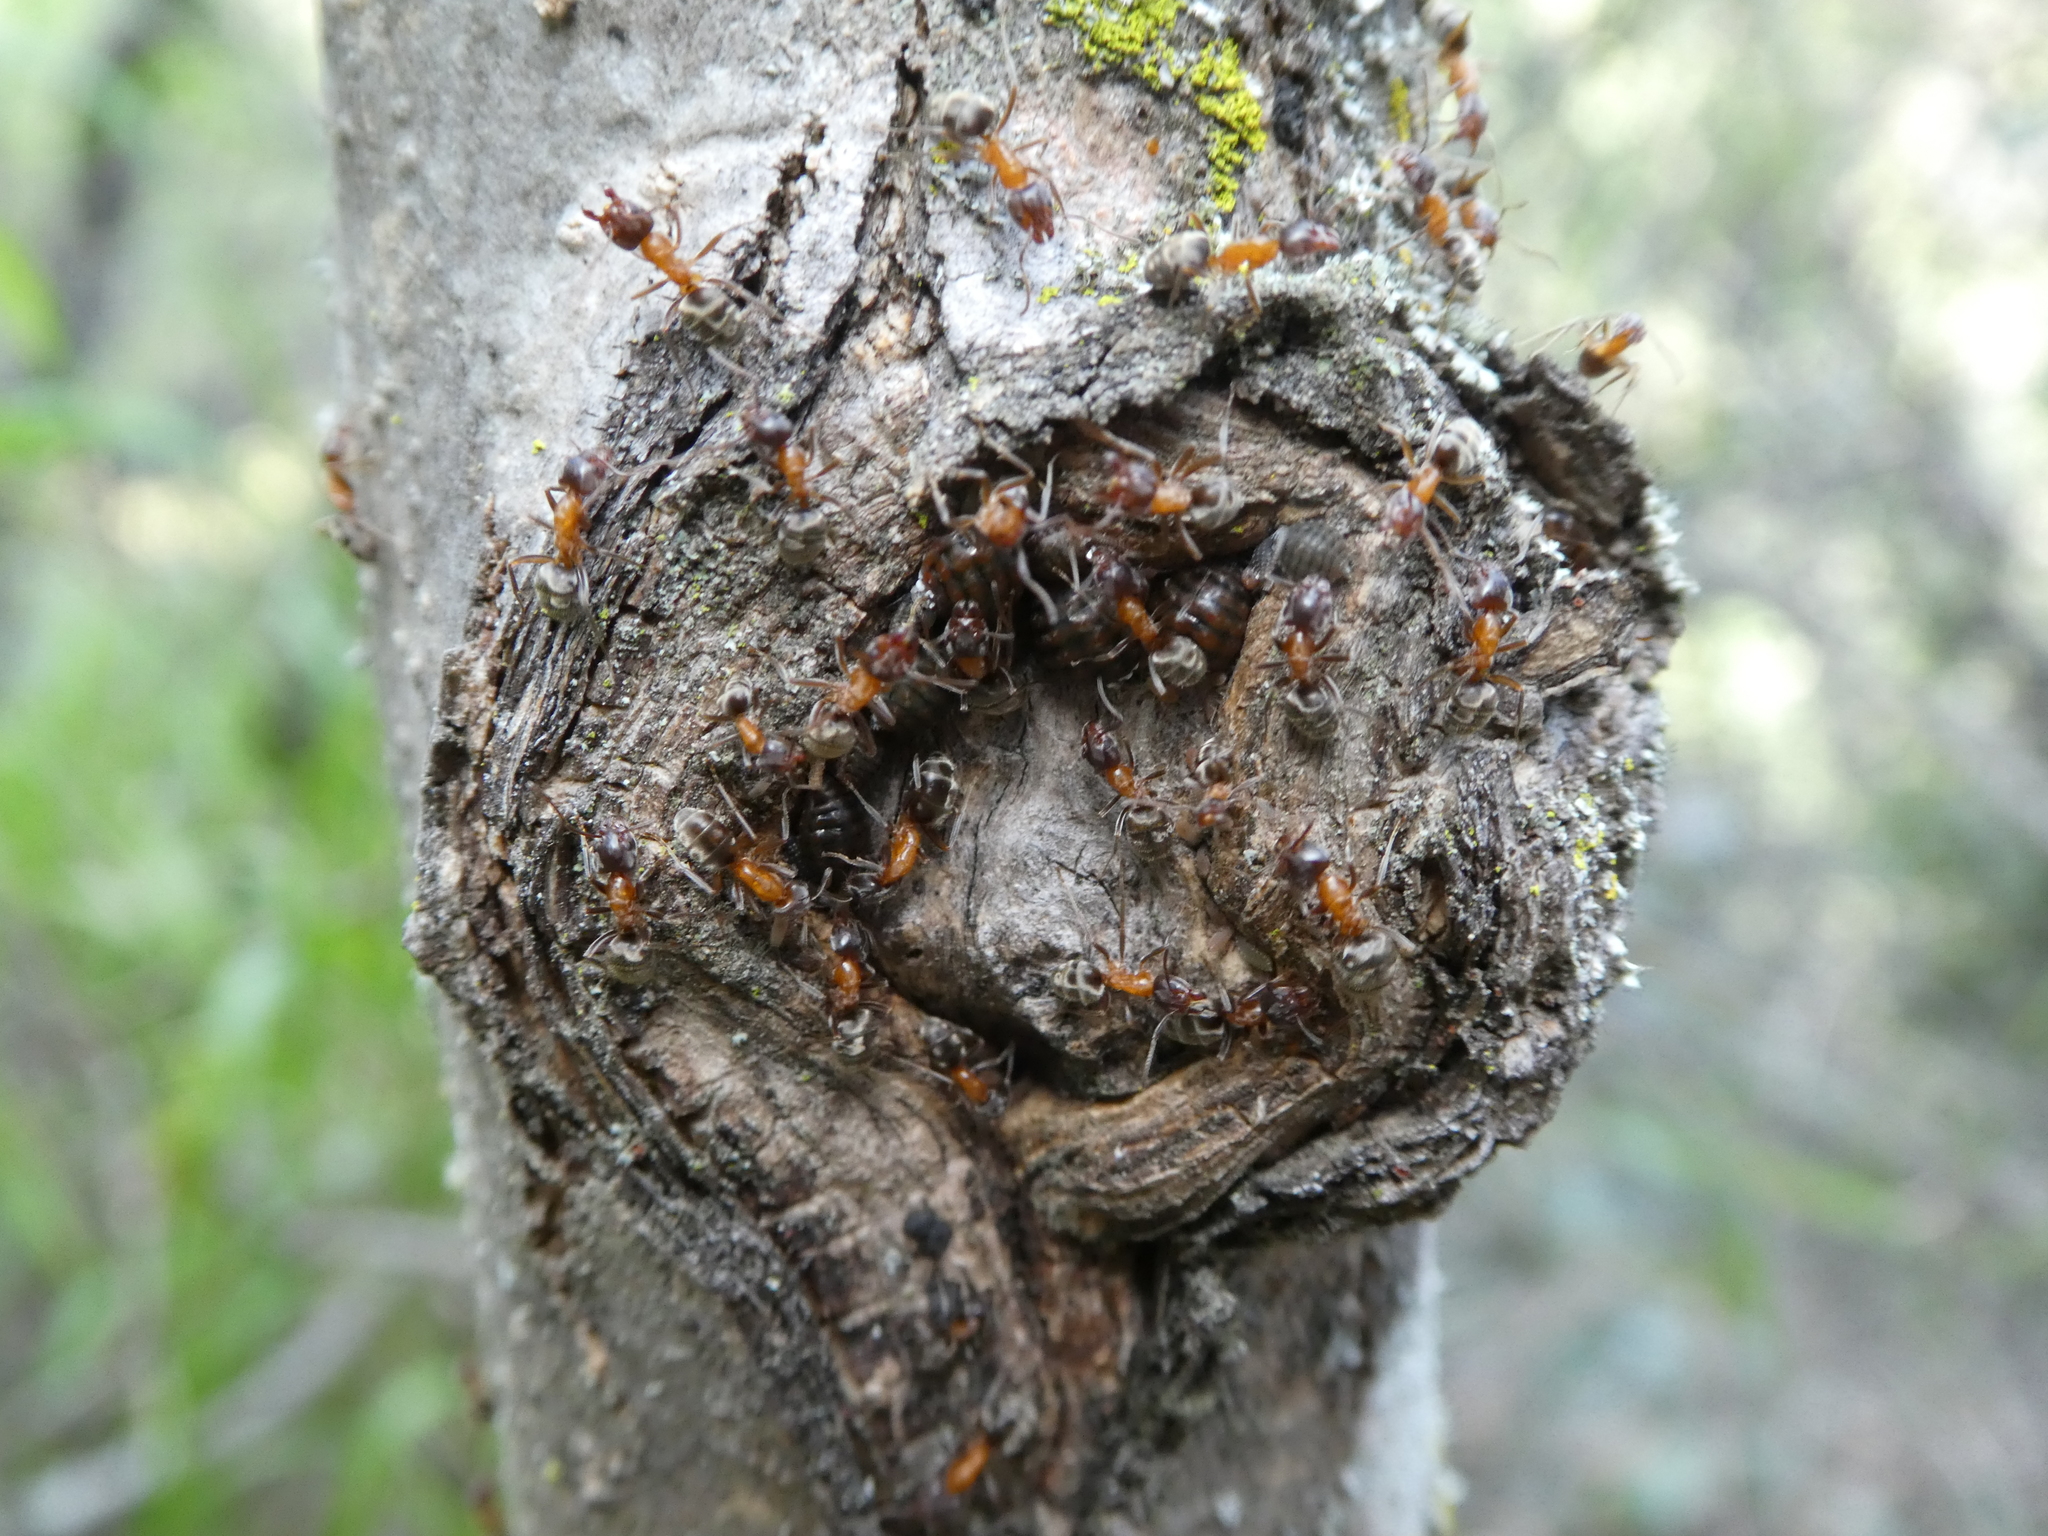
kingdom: Animalia
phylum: Arthropoda
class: Insecta
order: Hymenoptera
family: Formicidae
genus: Liometopum
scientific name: Liometopum occidentale
